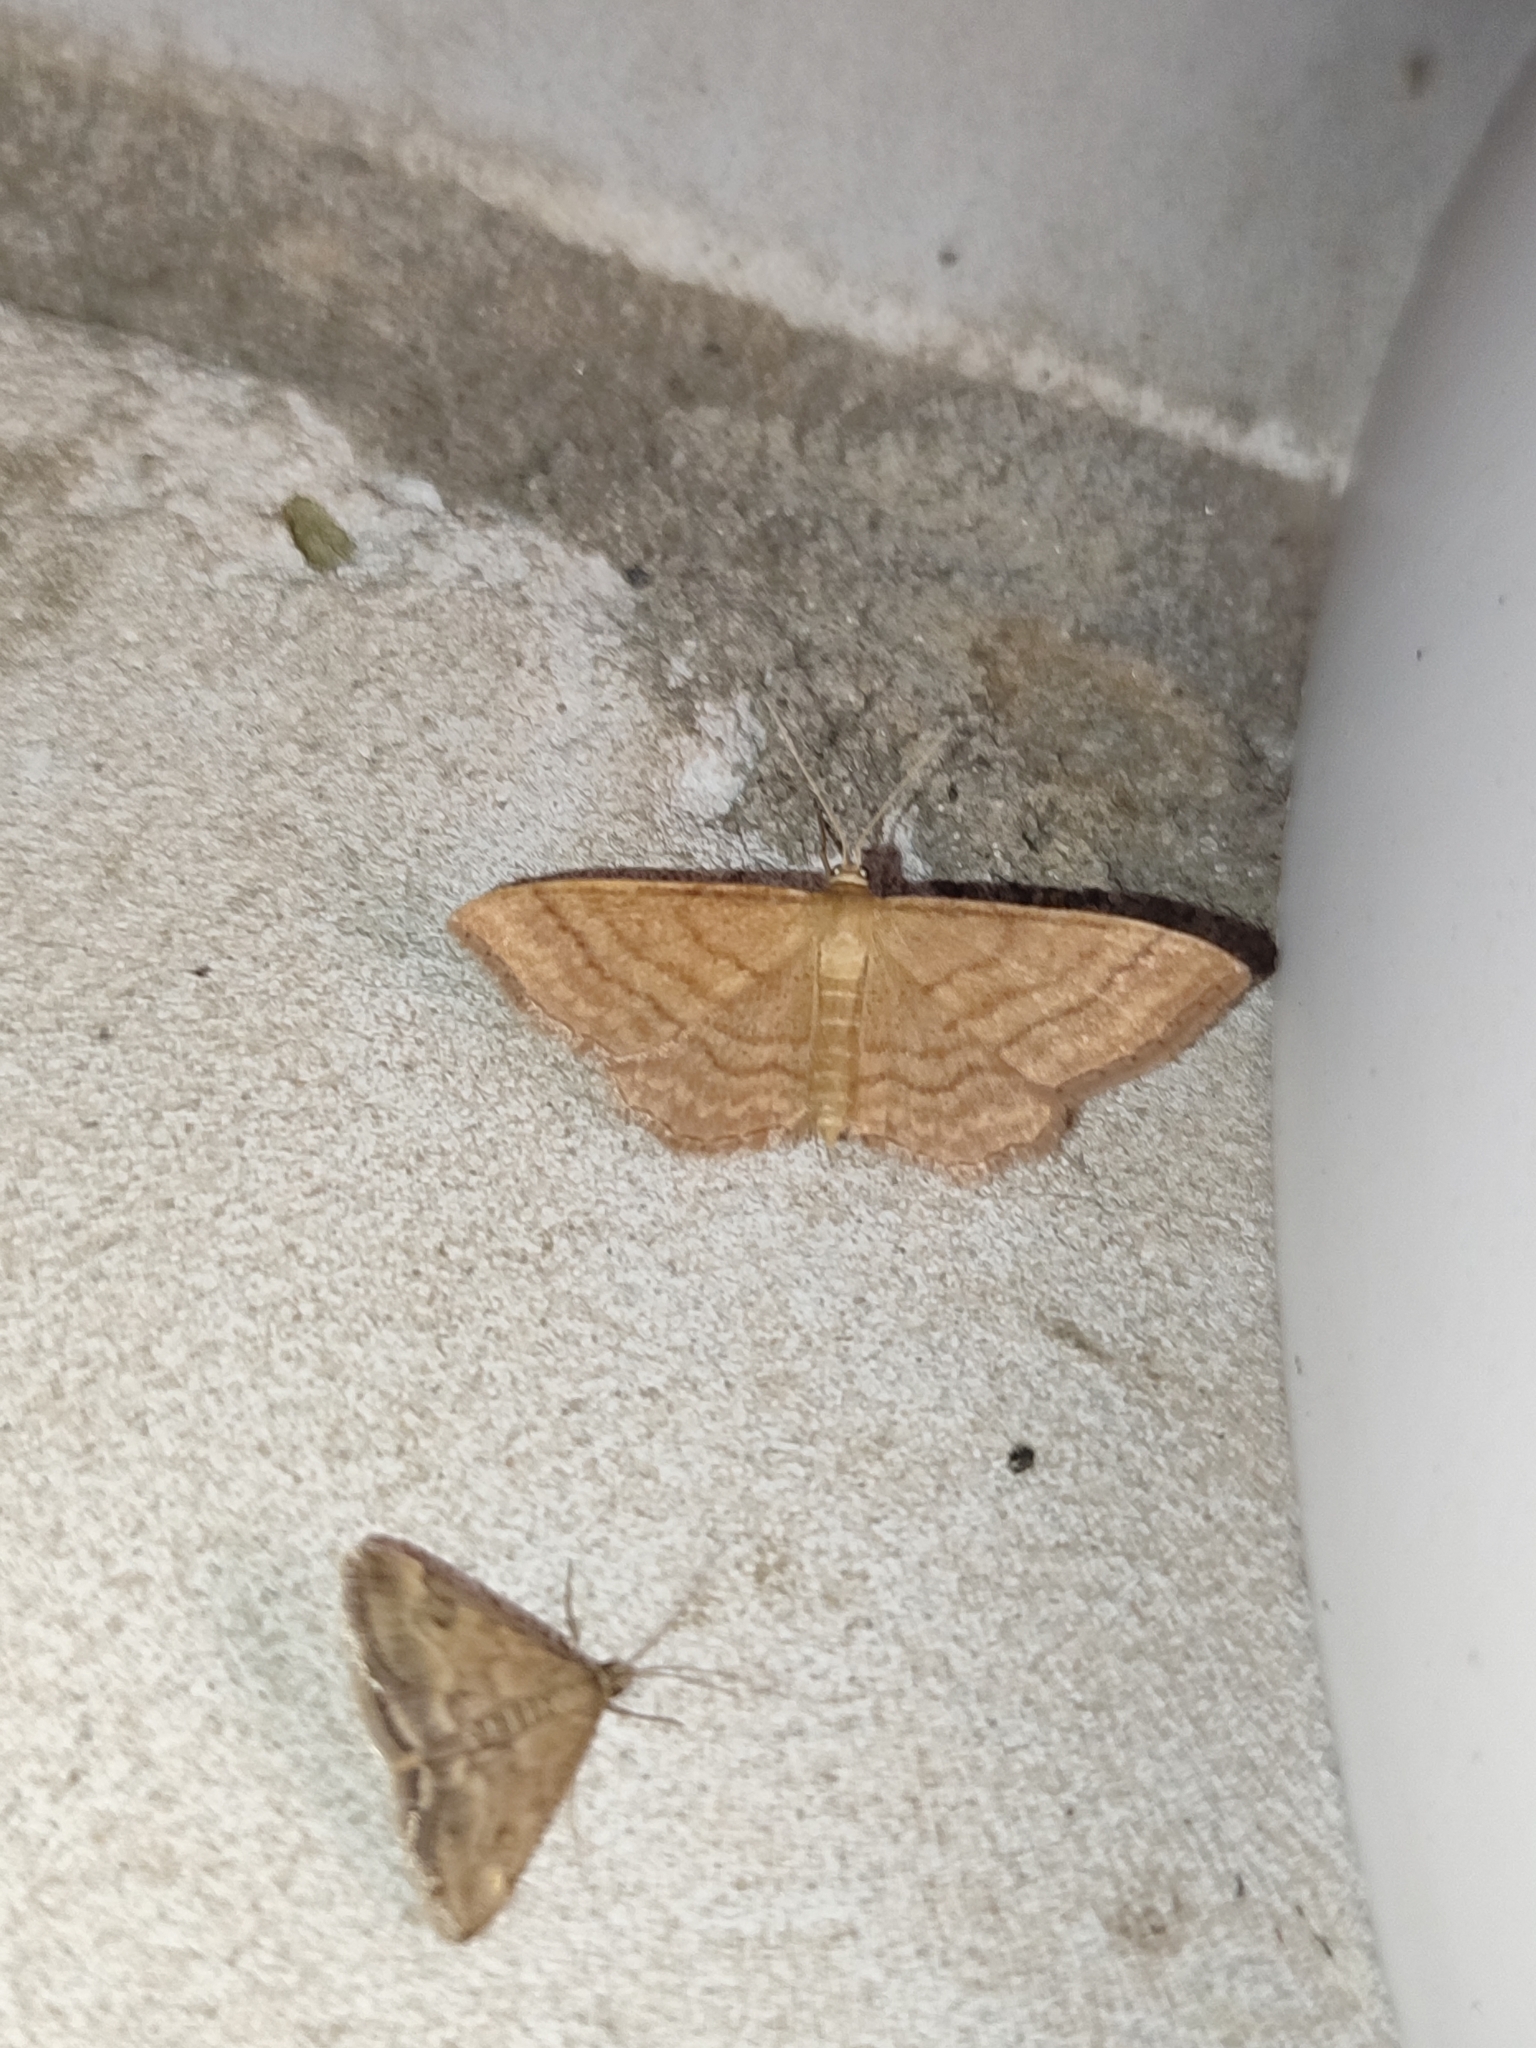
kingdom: Animalia
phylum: Arthropoda
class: Insecta
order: Lepidoptera
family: Geometridae
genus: Idaea
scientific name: Idaea ochrata
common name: Bright wave
